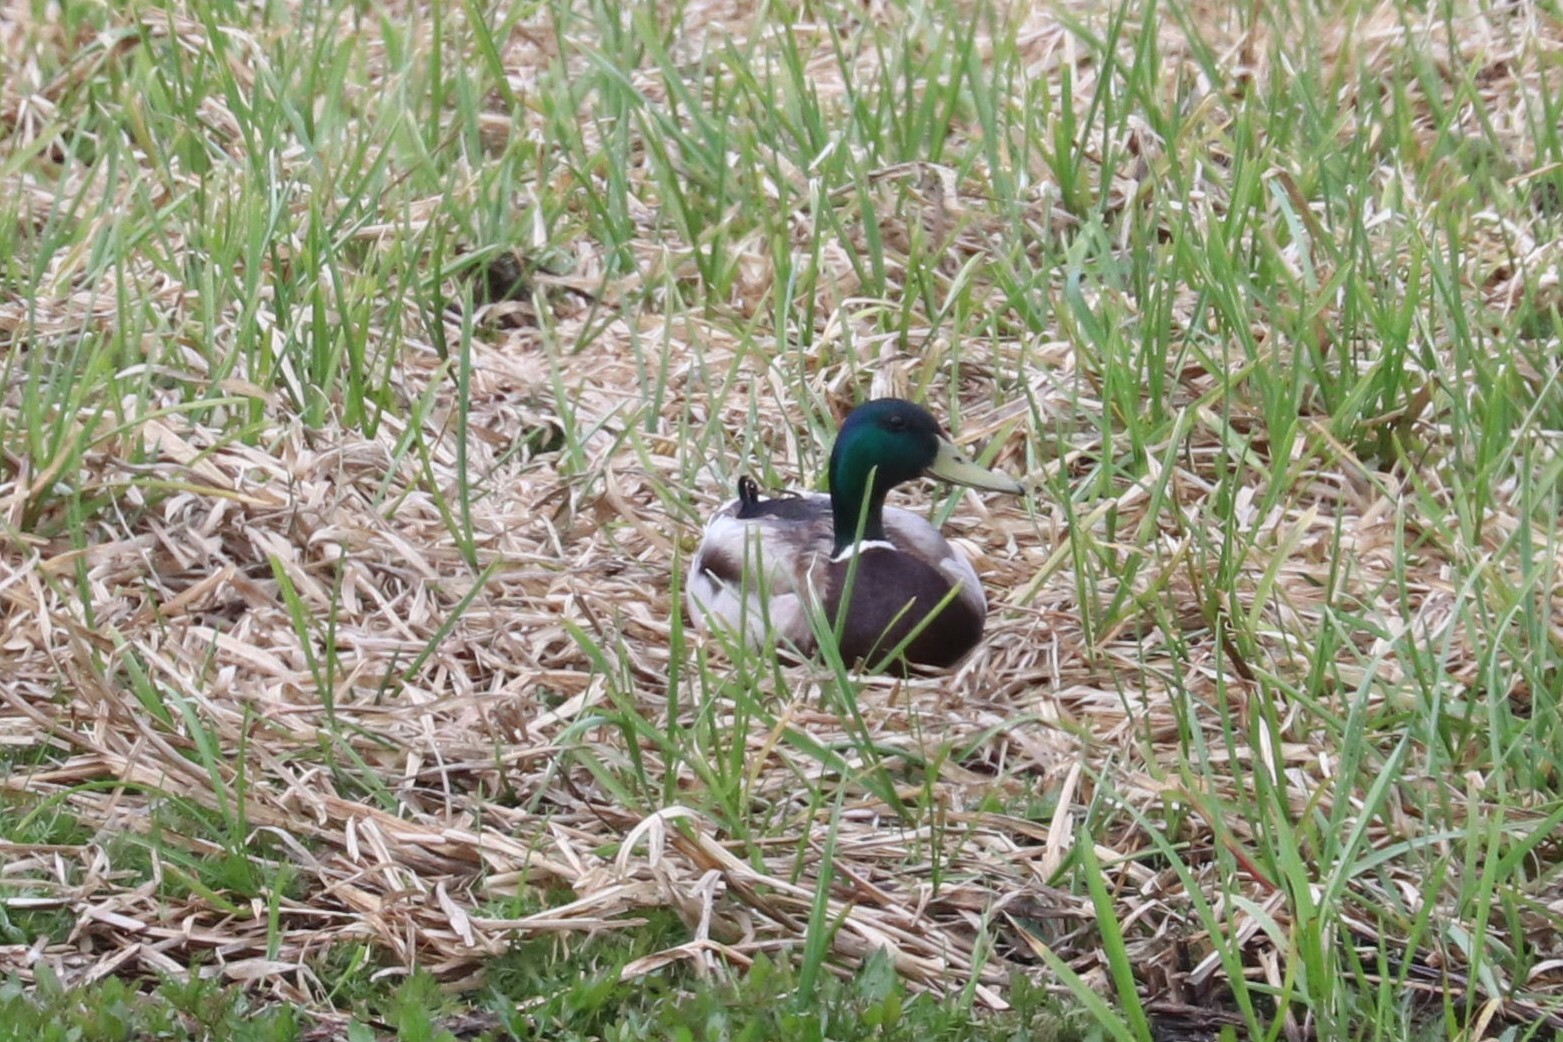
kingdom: Animalia
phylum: Chordata
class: Aves
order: Anseriformes
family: Anatidae
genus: Anas
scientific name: Anas platyrhynchos
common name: Mallard
